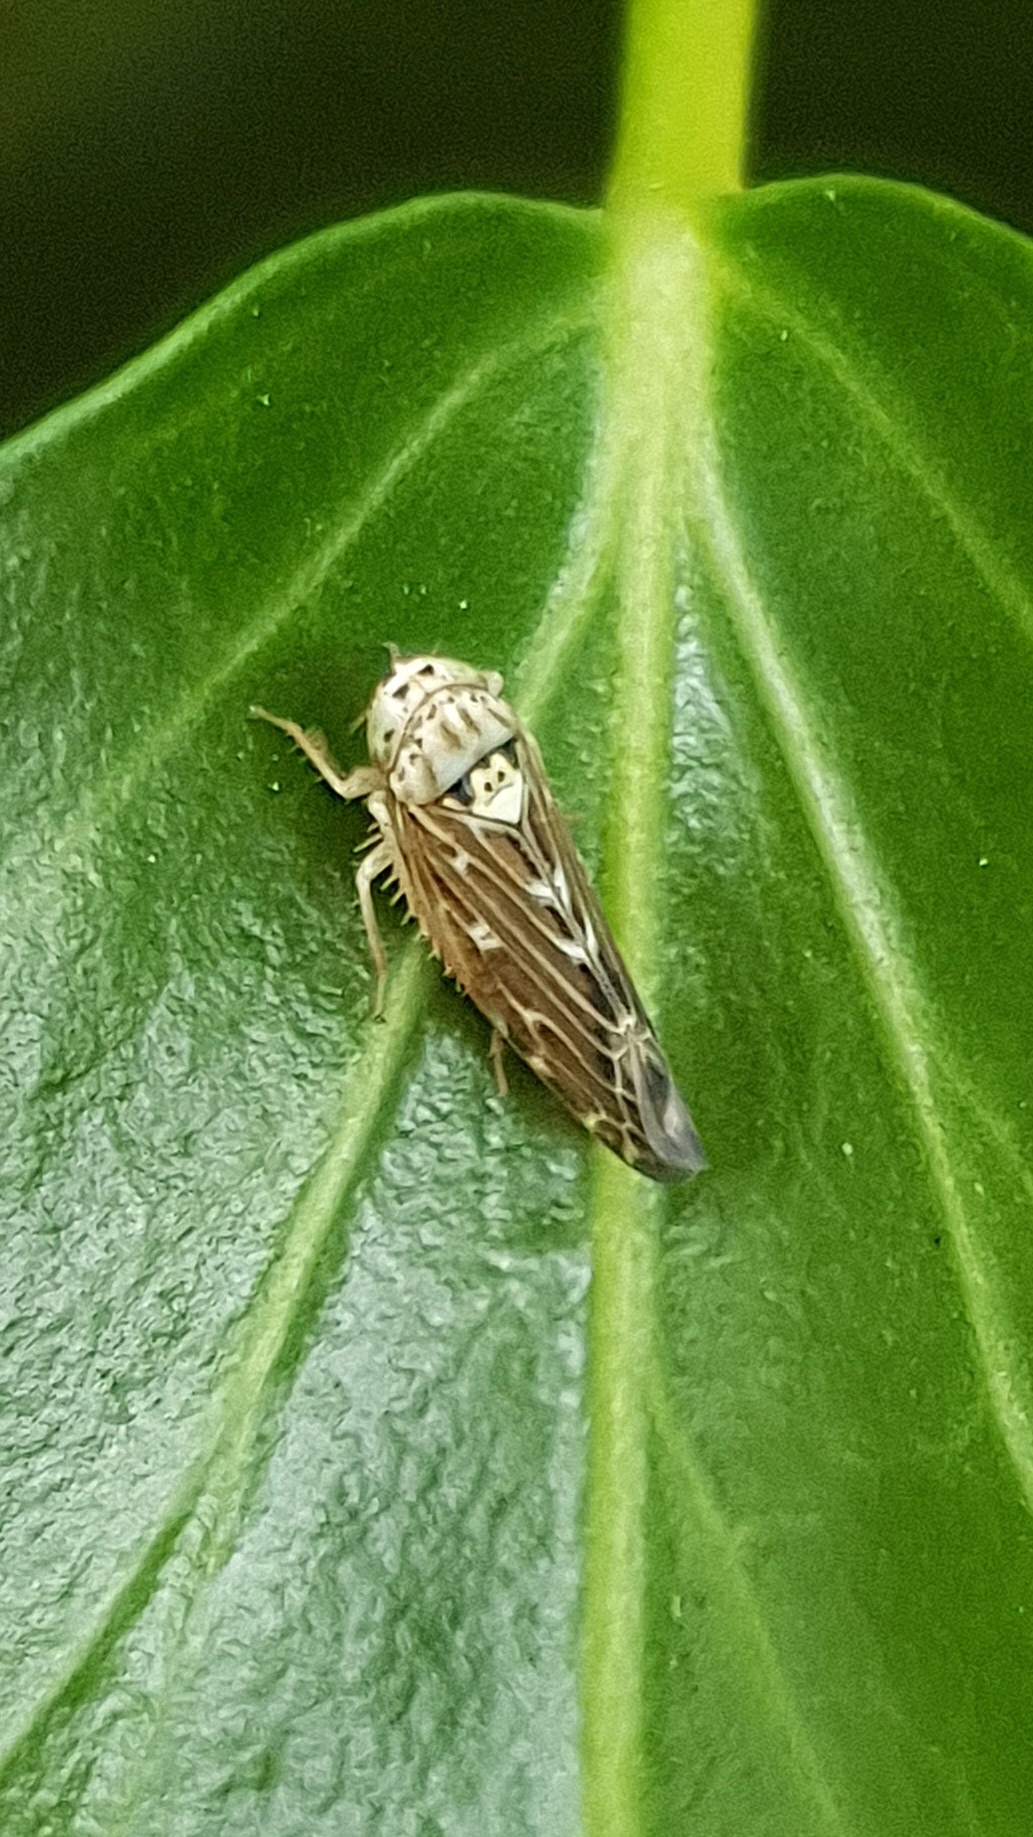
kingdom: Animalia
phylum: Arthropoda
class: Insecta
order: Hemiptera
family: Cicadellidae
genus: Lamprotettix
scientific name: Lamprotettix nitidulus
